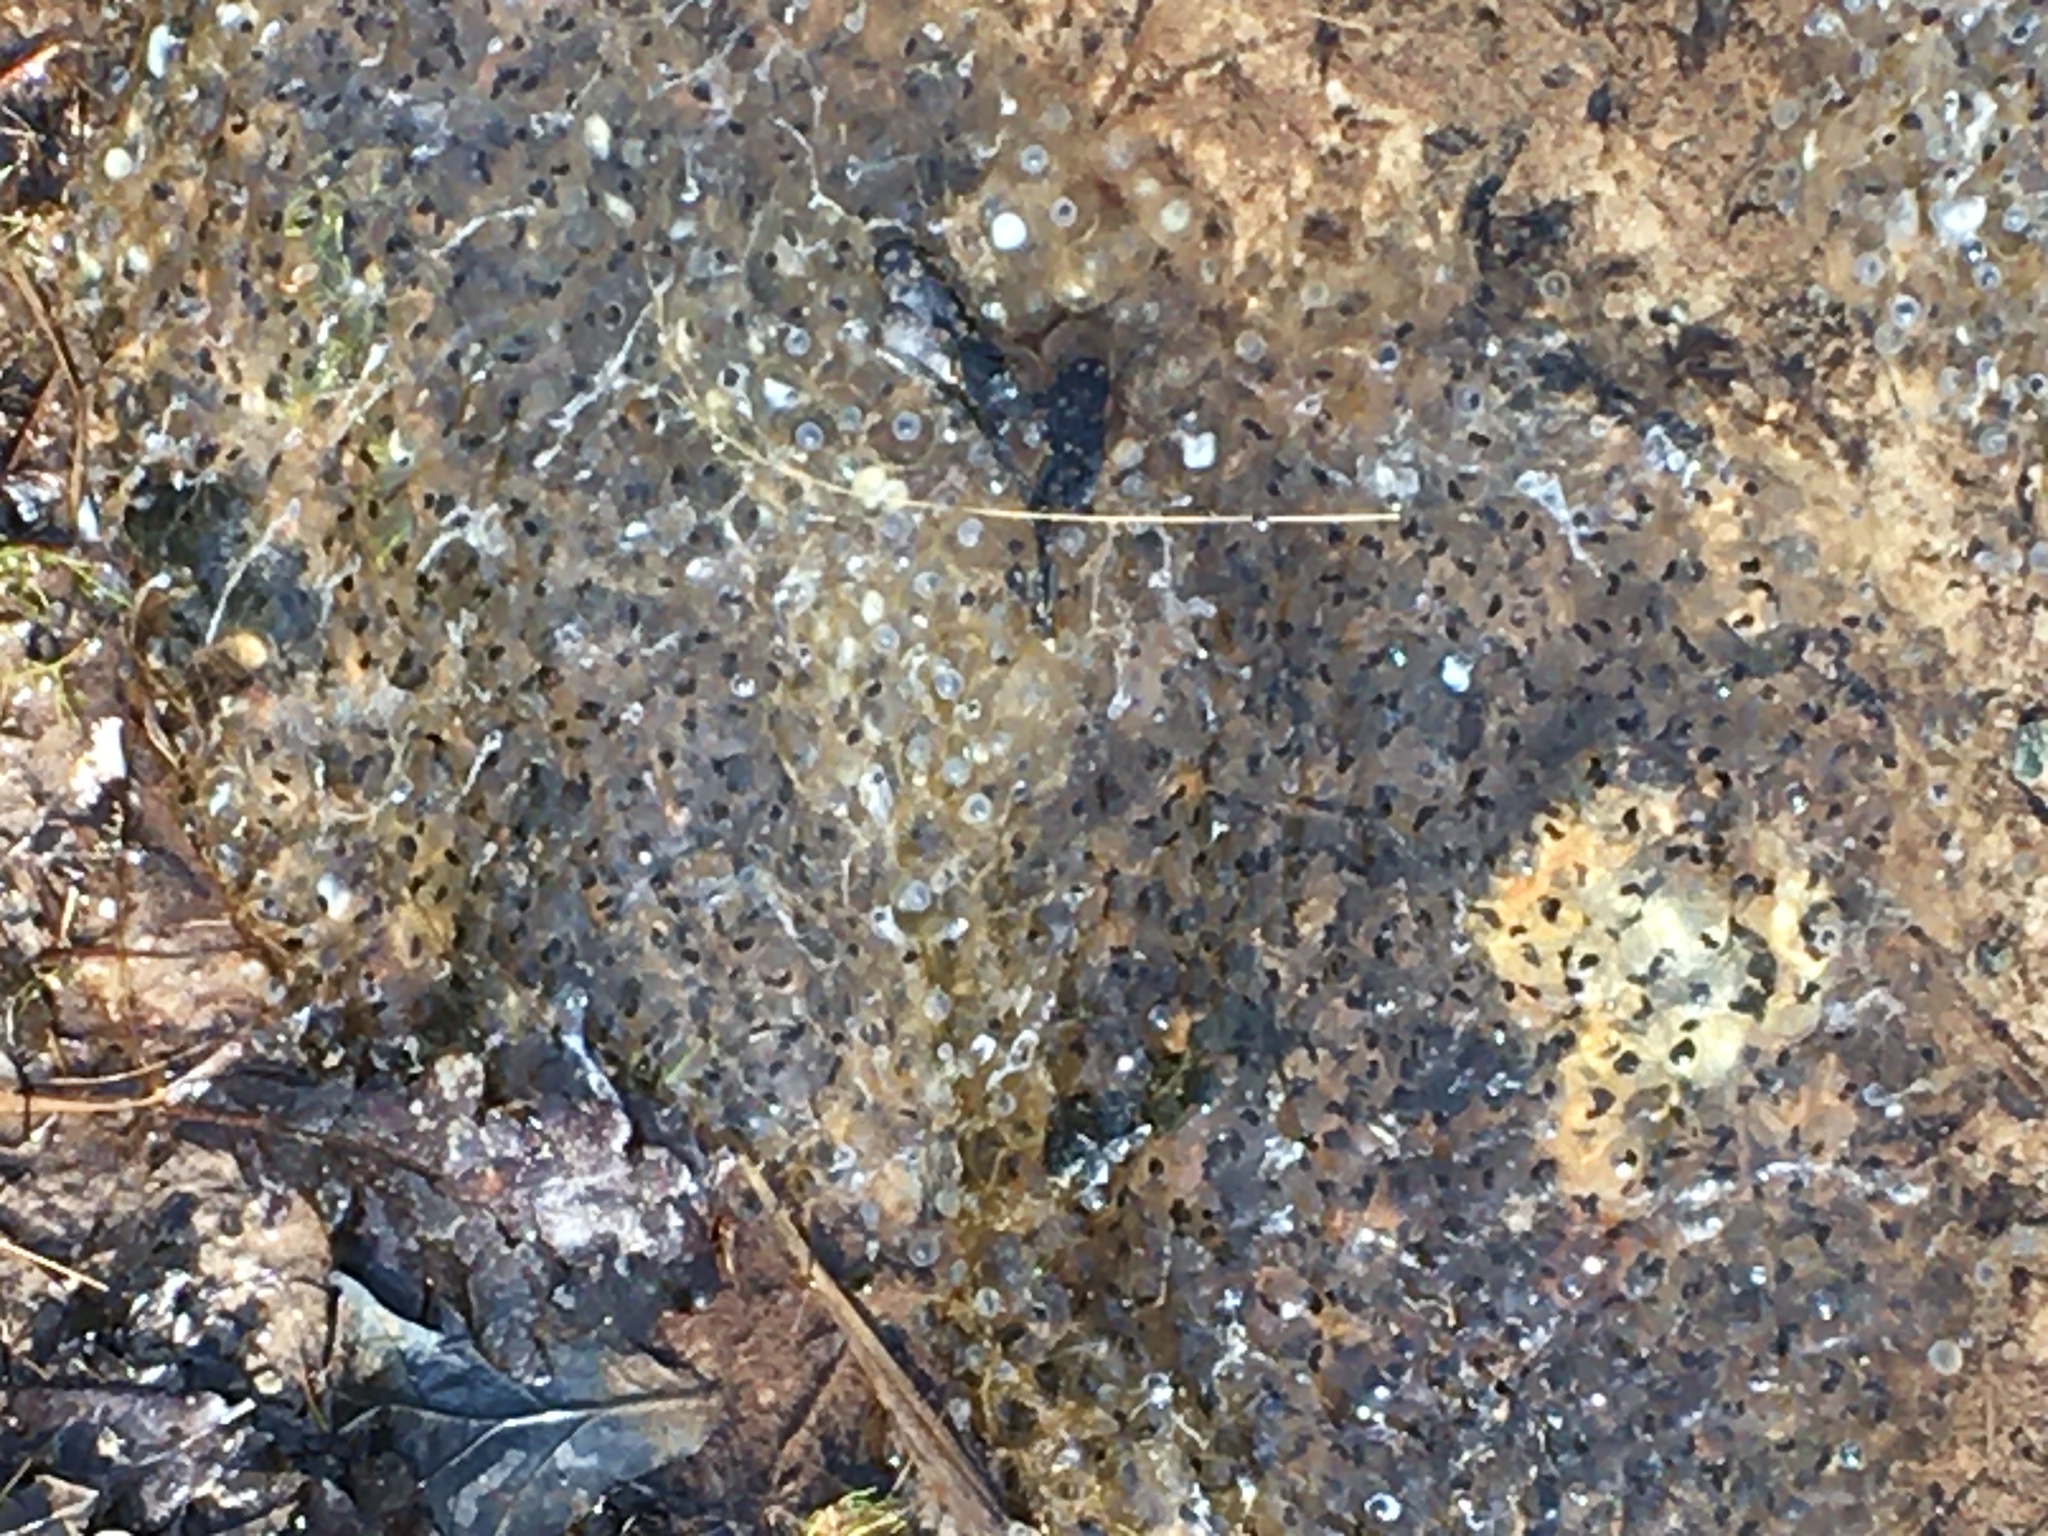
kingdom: Animalia
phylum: Chordata
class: Amphibia
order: Anura
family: Ranidae
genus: Rana
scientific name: Rana temporaria
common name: Common frog
